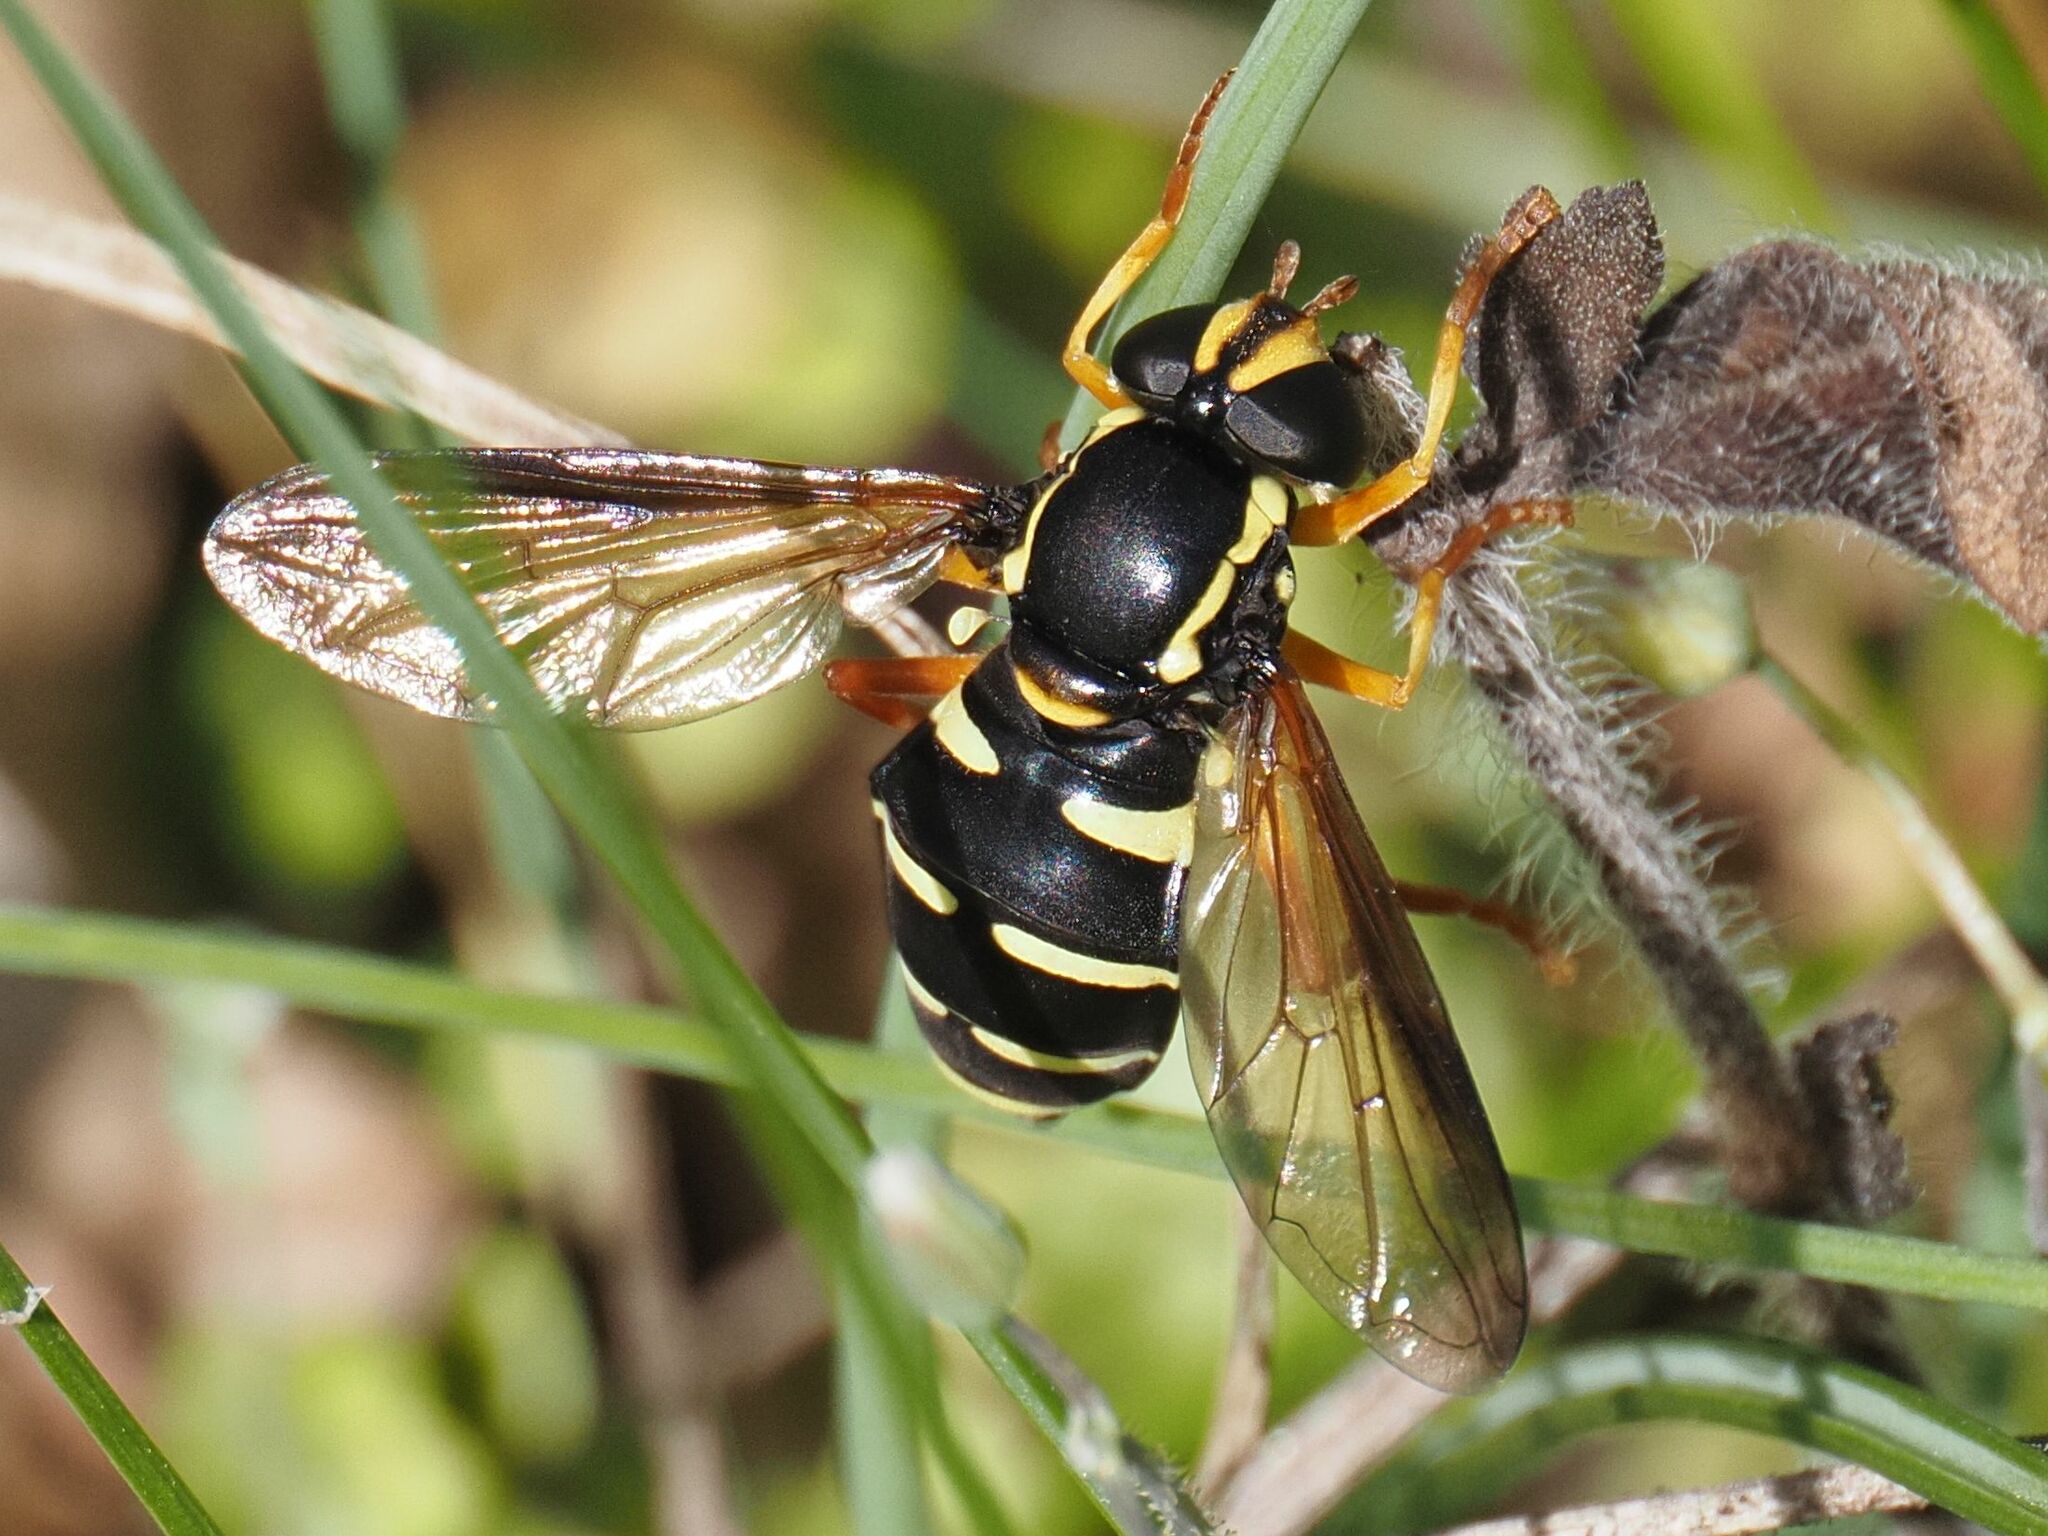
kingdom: Animalia
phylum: Arthropoda
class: Insecta
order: Diptera
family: Syrphidae
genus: Philhelius
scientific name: Philhelius citrofasciata
